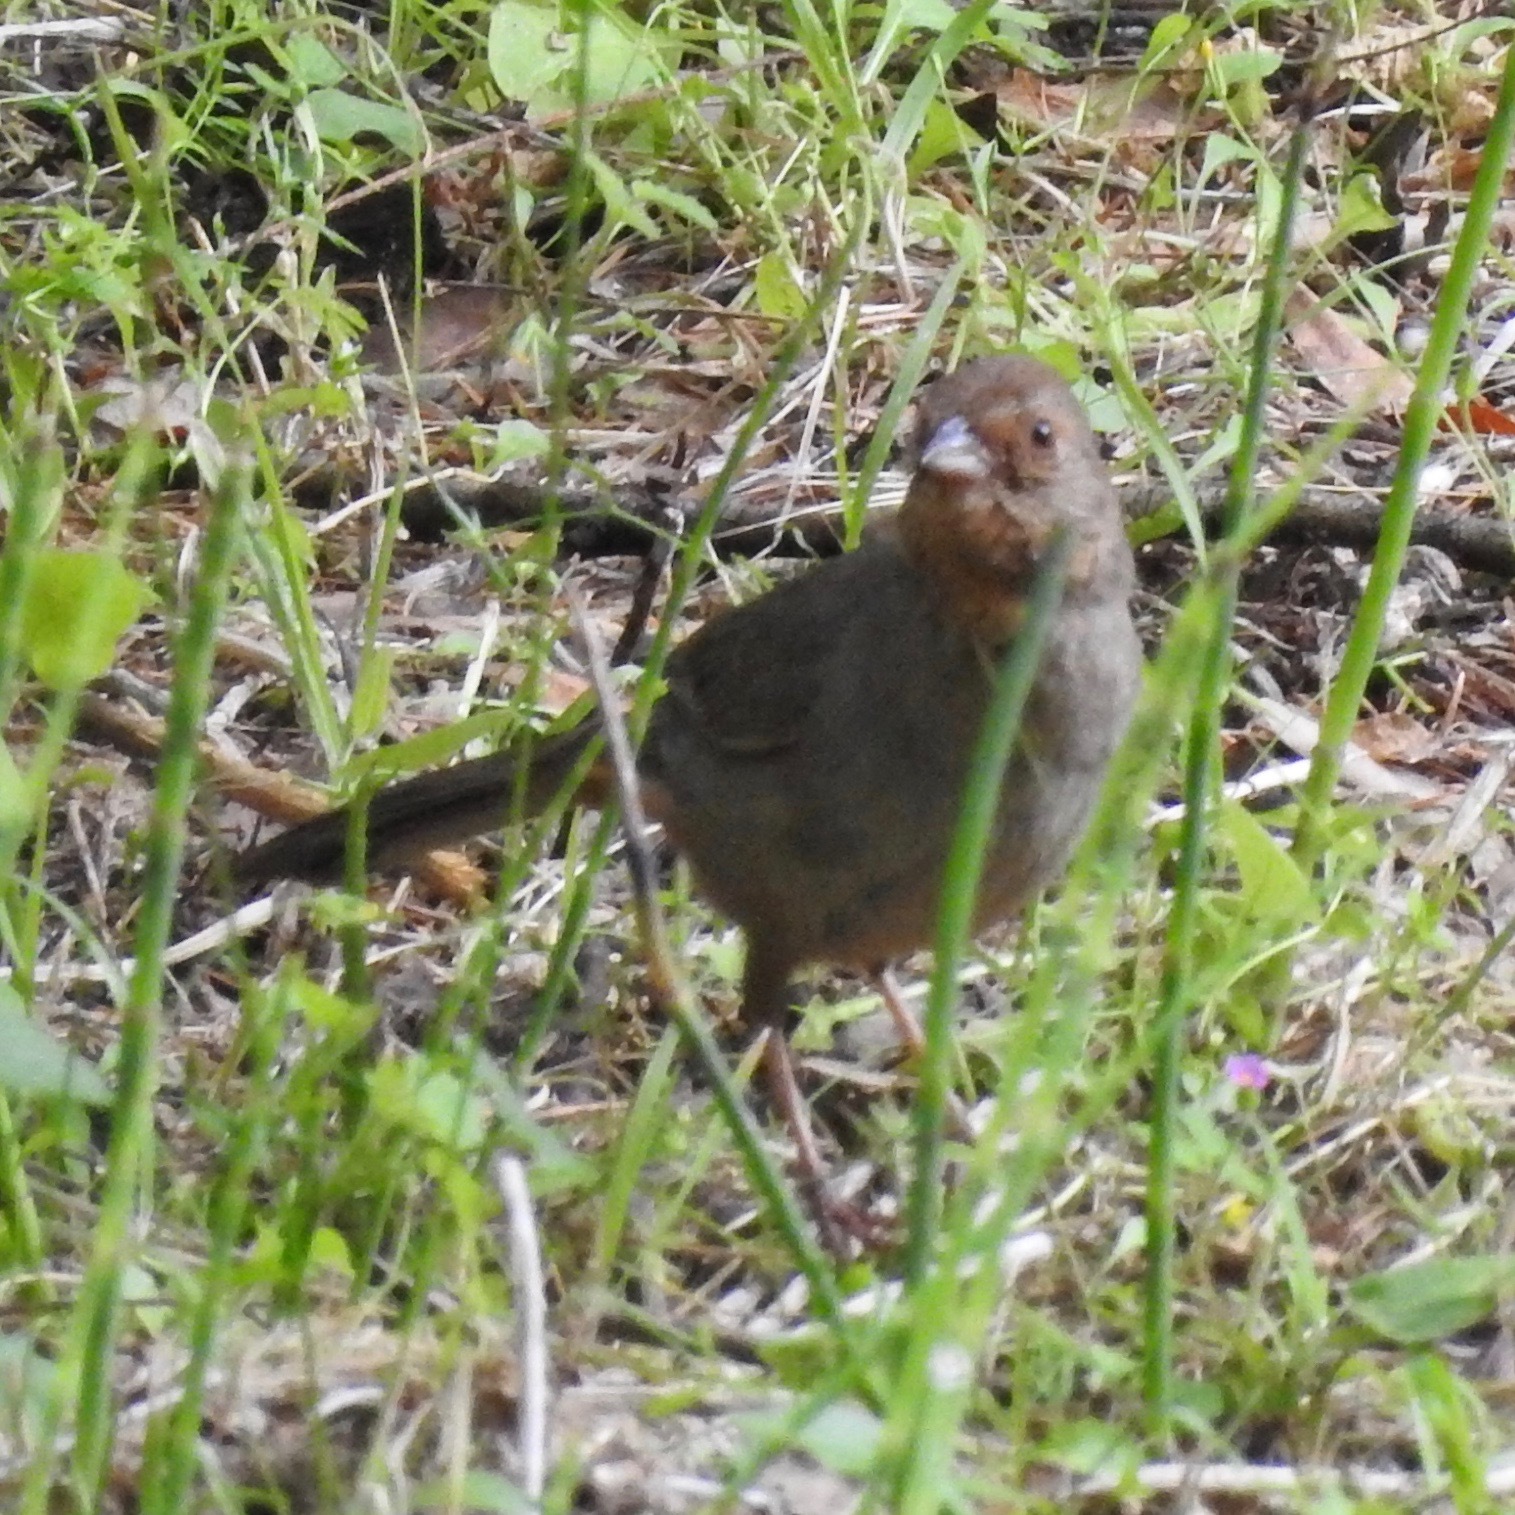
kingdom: Animalia
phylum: Chordata
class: Aves
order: Passeriformes
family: Passerellidae
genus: Melozone
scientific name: Melozone crissalis
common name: California towhee
